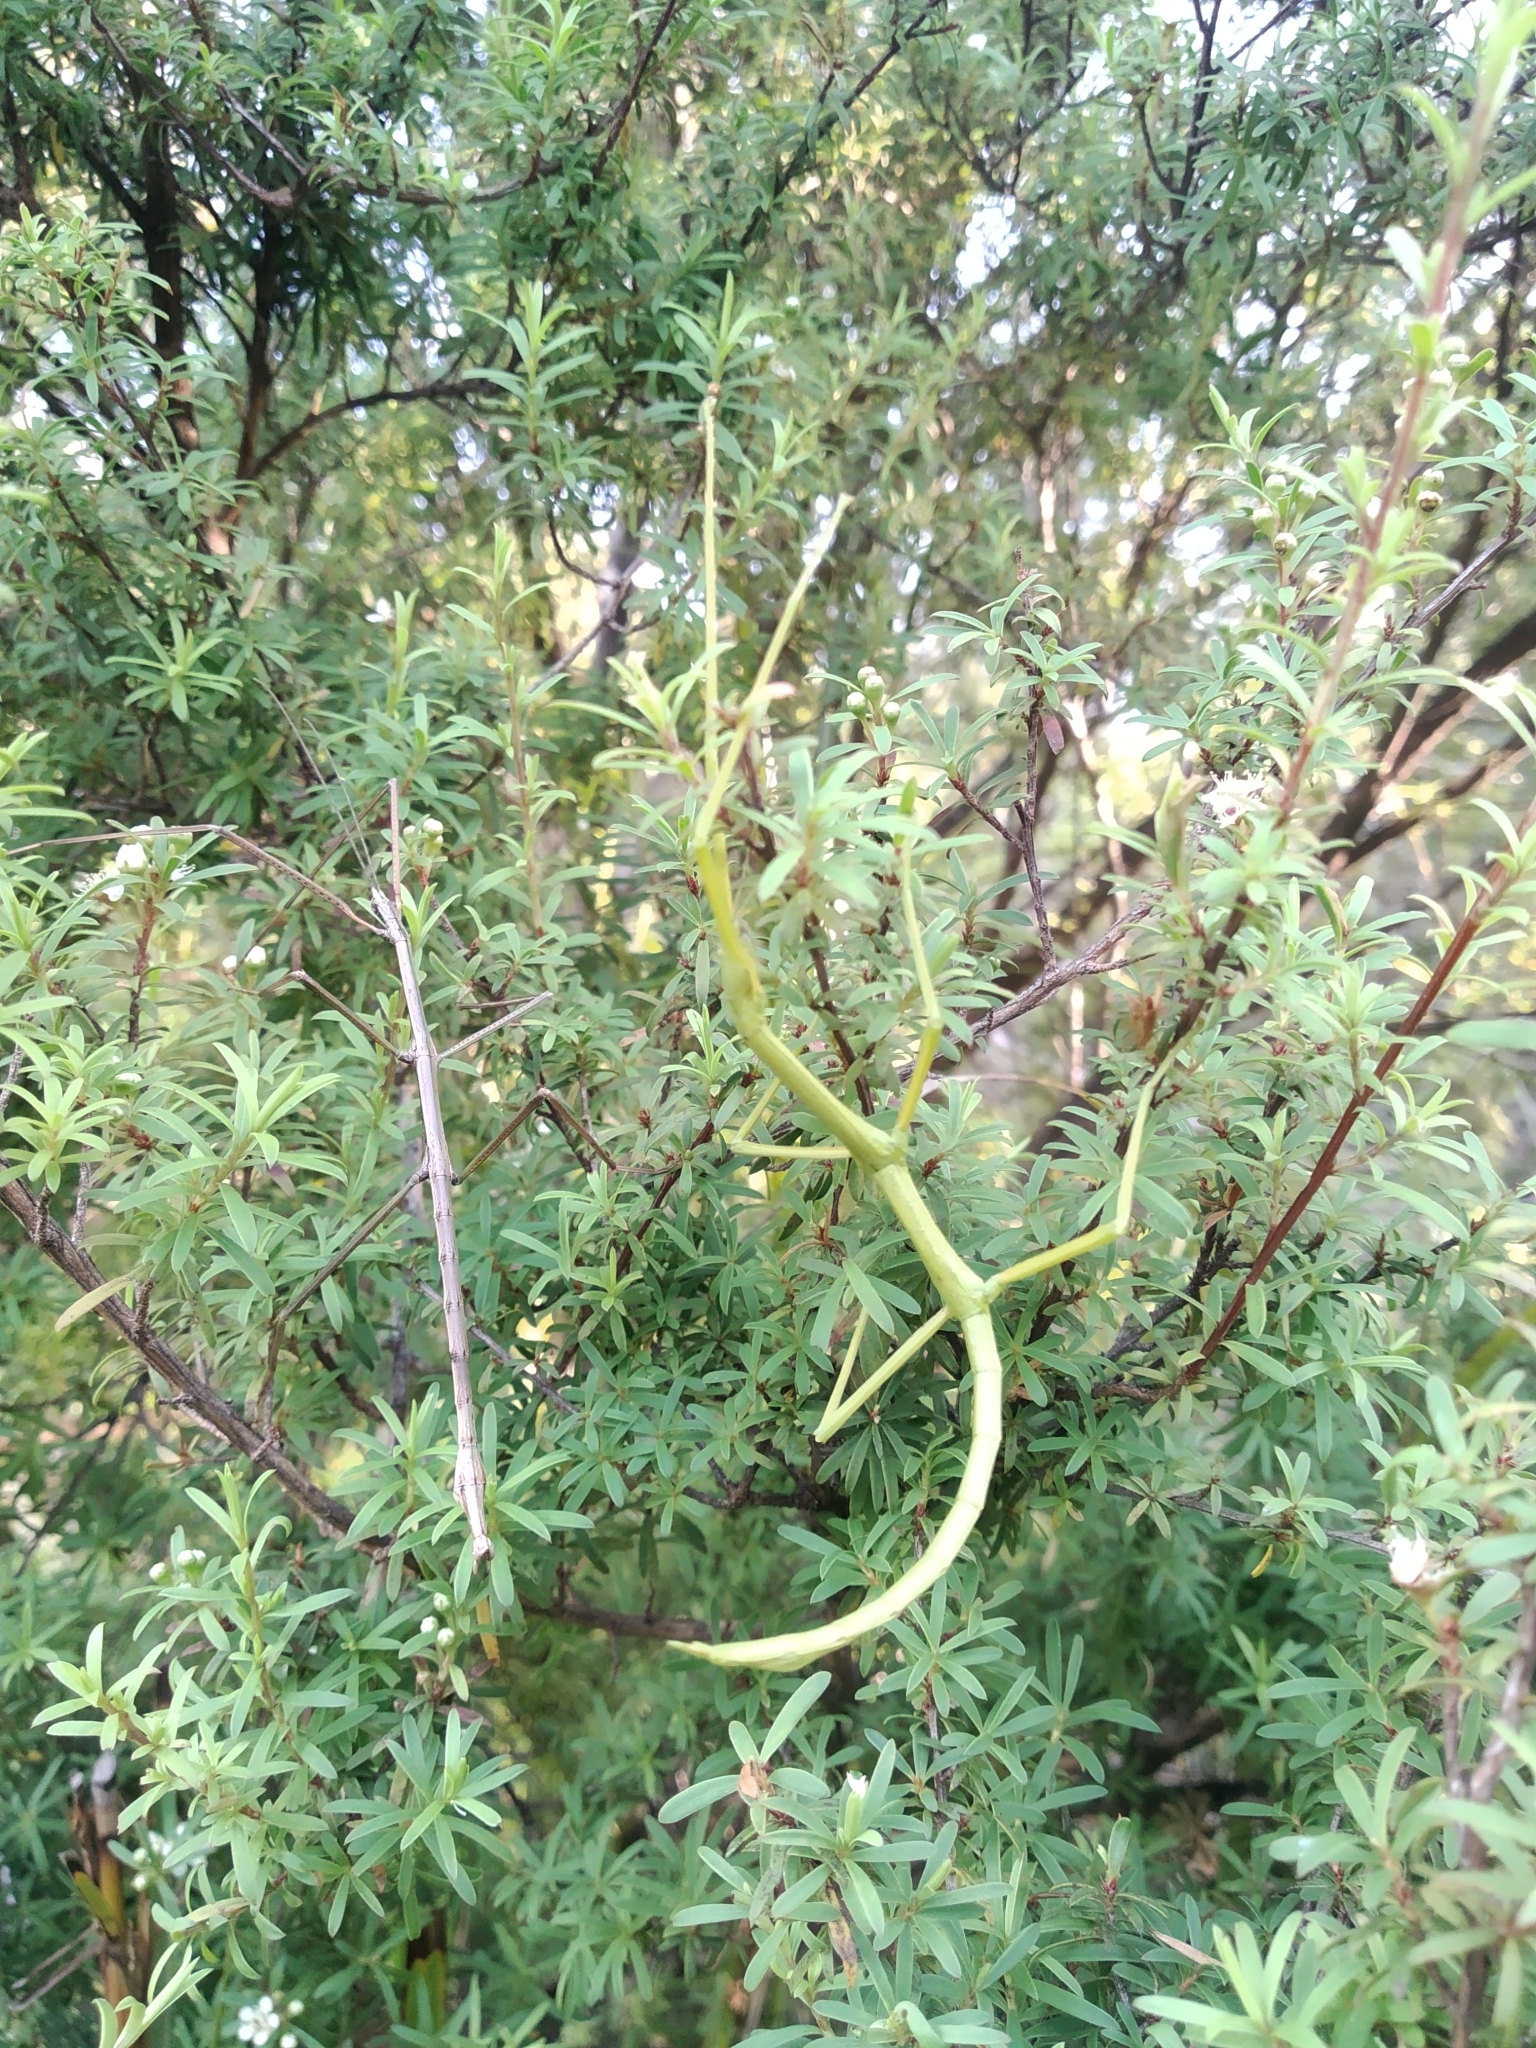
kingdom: Animalia
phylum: Arthropoda
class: Insecta
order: Phasmida
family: Phasmatidae
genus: Clitarchus
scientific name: Clitarchus hookeri
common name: Smooth stick insect
